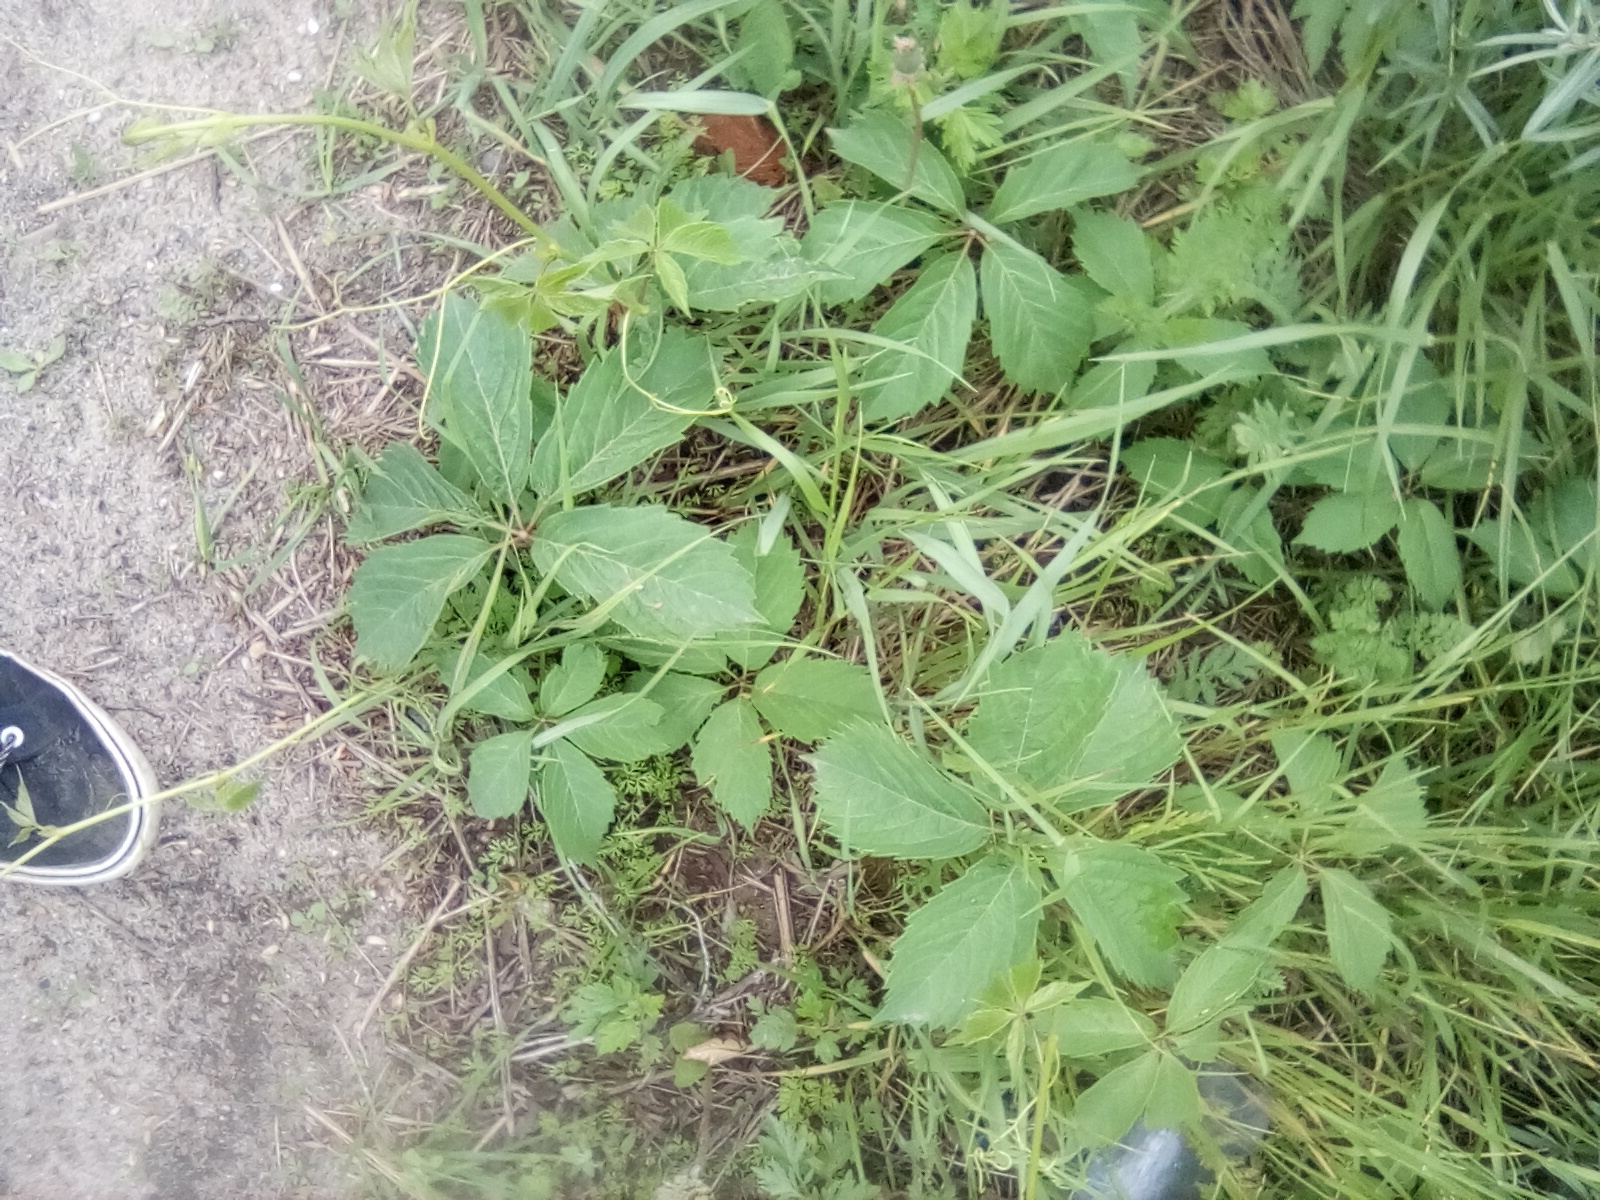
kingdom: Plantae
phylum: Tracheophyta
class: Magnoliopsida
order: Vitales
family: Vitaceae
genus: Parthenocissus
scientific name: Parthenocissus inserta
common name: False virginia-creeper
